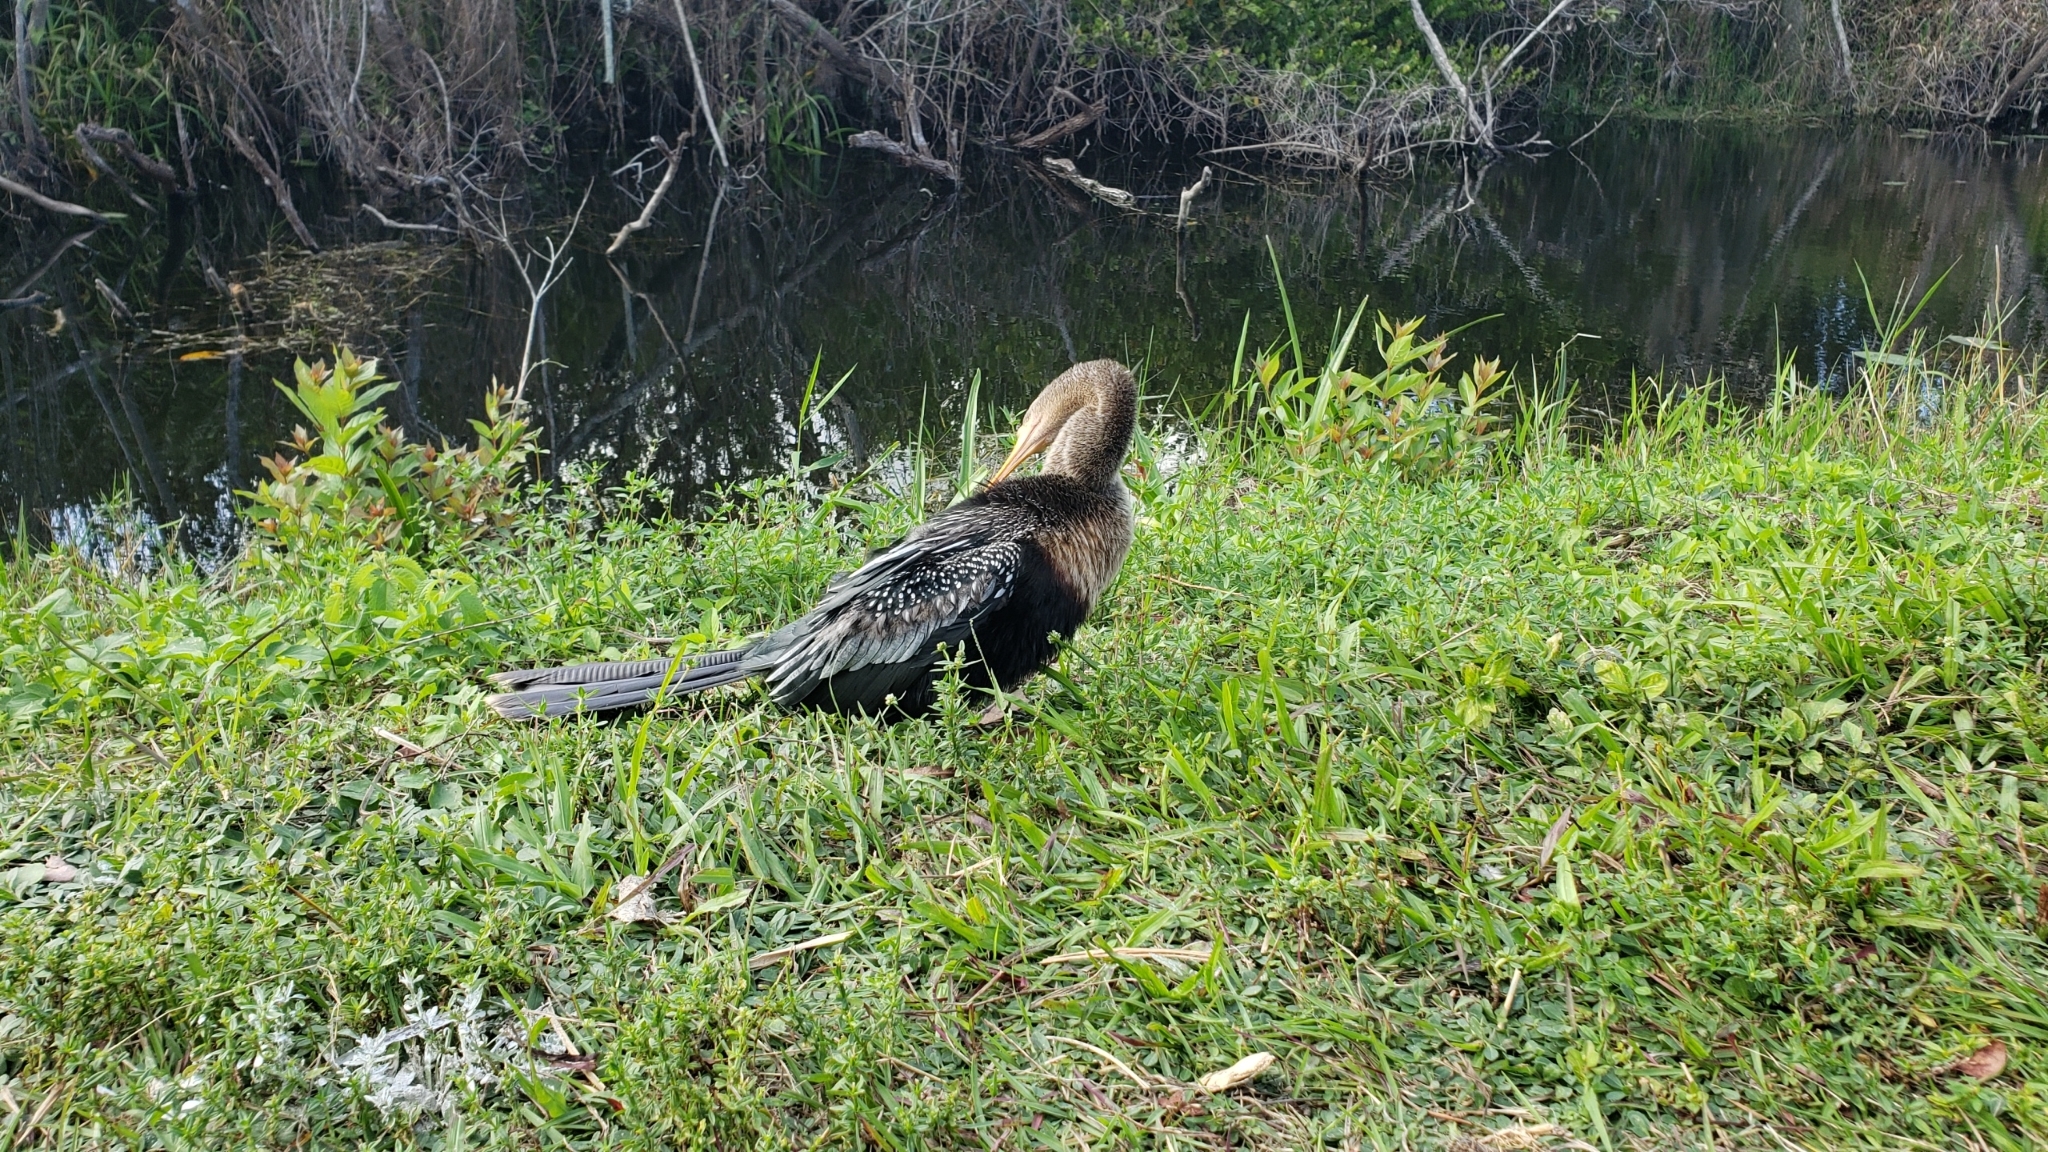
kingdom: Animalia
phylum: Chordata
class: Aves
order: Suliformes
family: Anhingidae
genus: Anhinga
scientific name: Anhinga anhinga
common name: Anhinga
